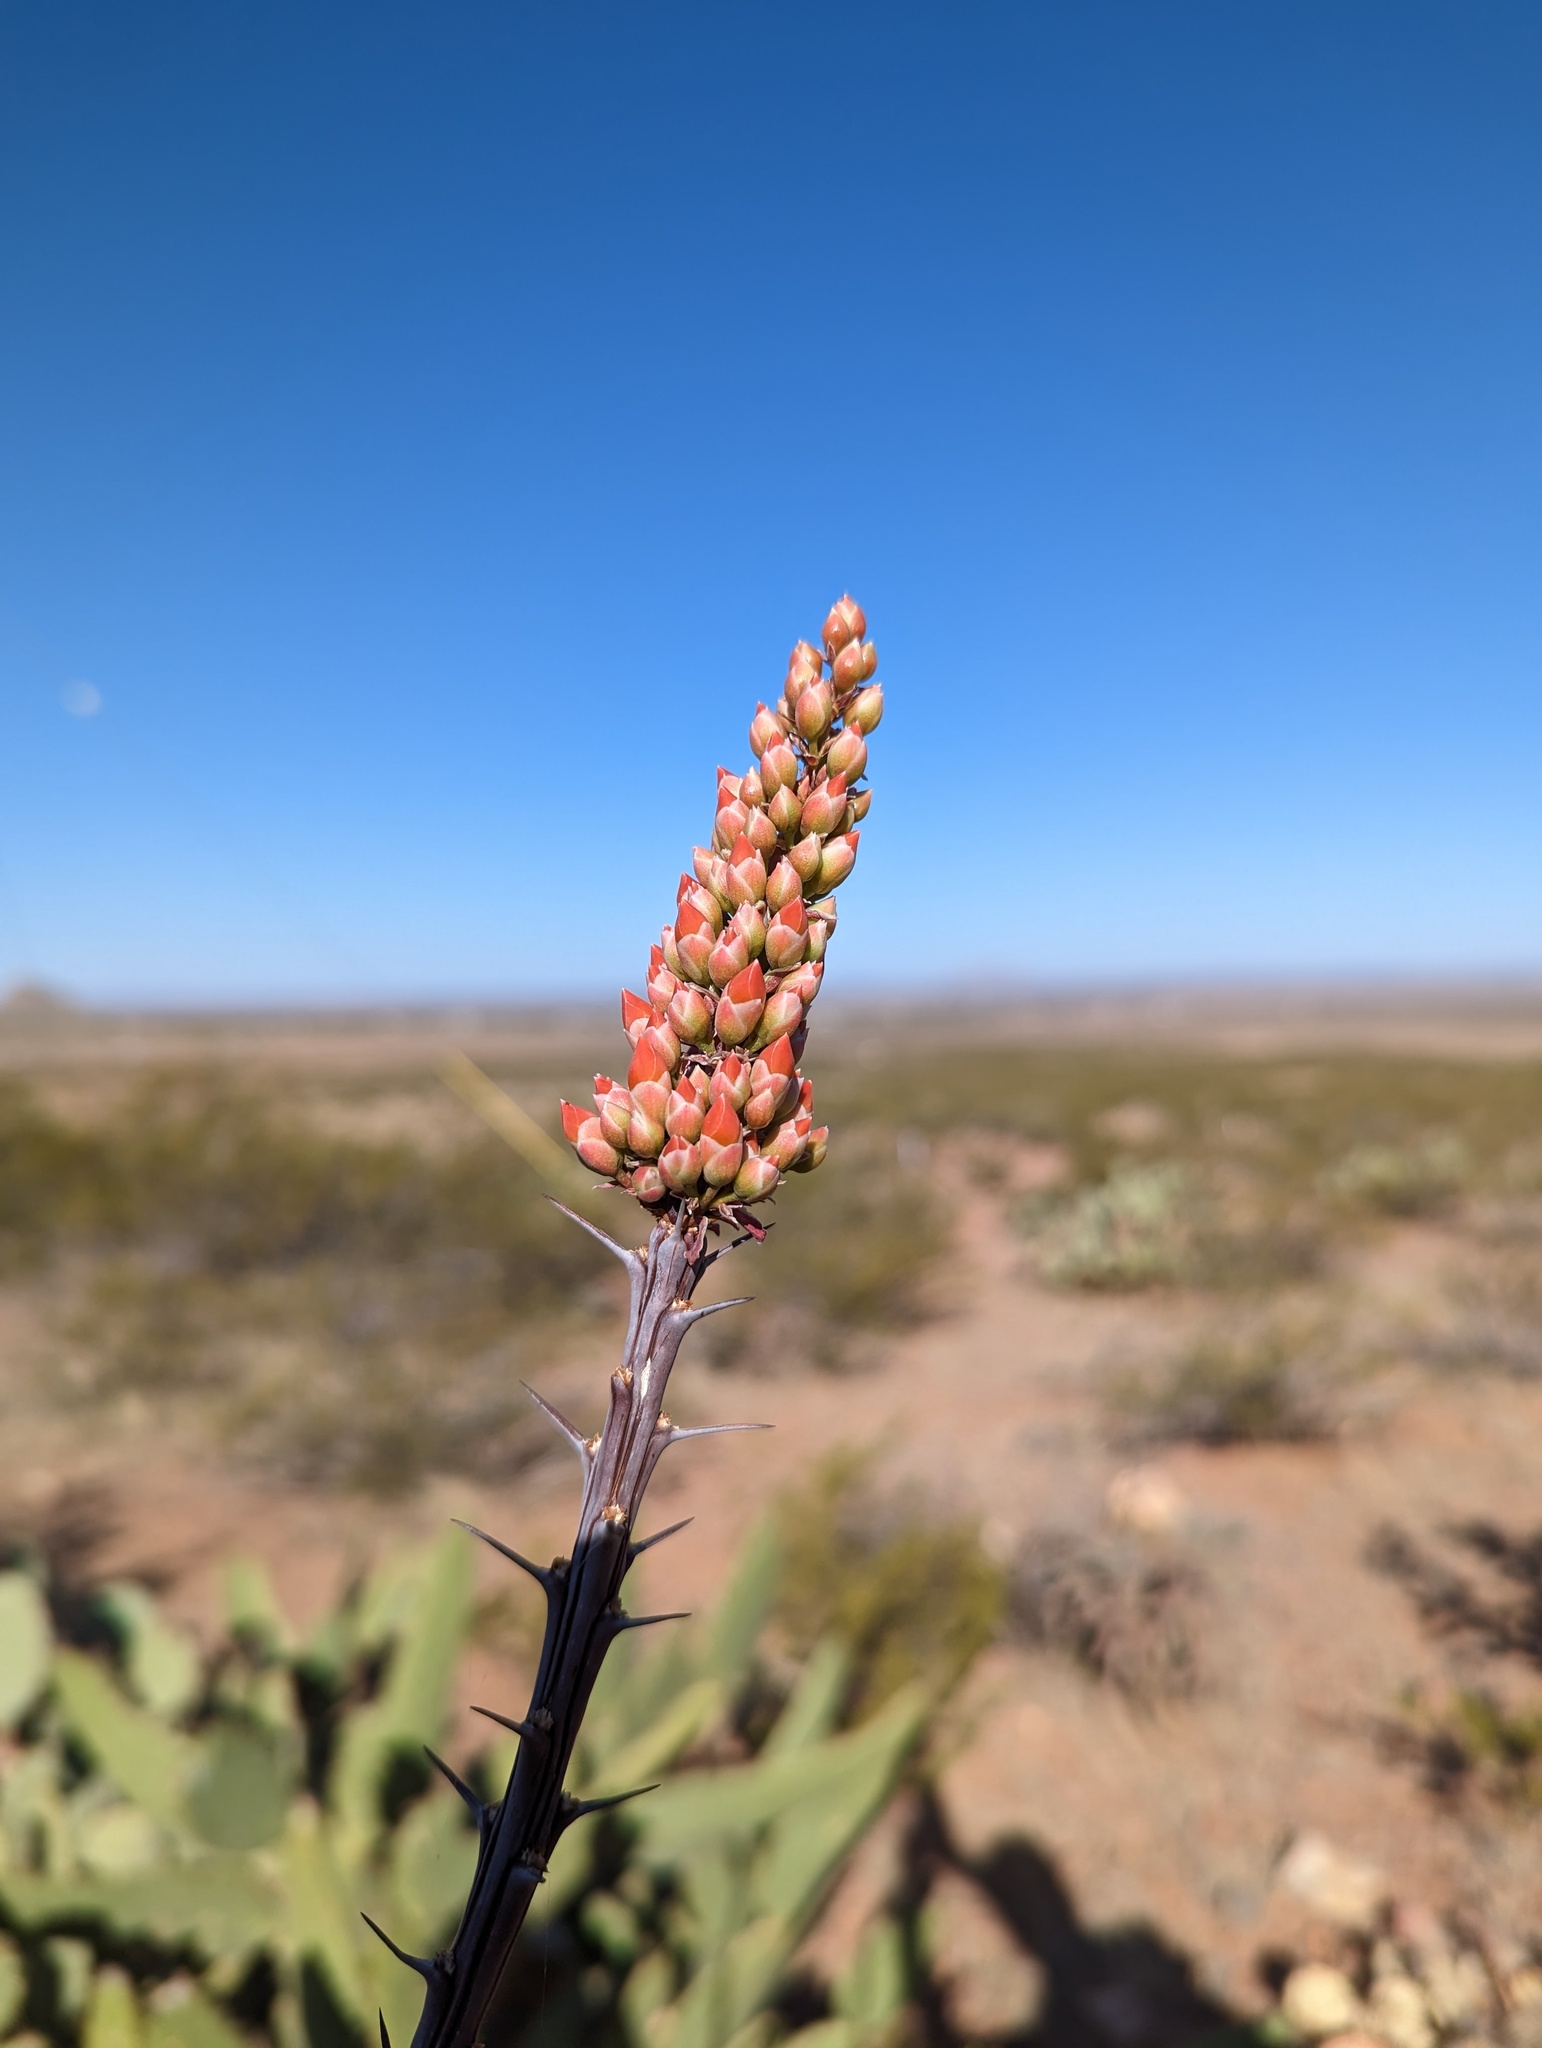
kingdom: Plantae
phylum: Tracheophyta
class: Magnoliopsida
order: Ericales
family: Fouquieriaceae
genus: Fouquieria
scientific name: Fouquieria splendens
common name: Vine-cactus
